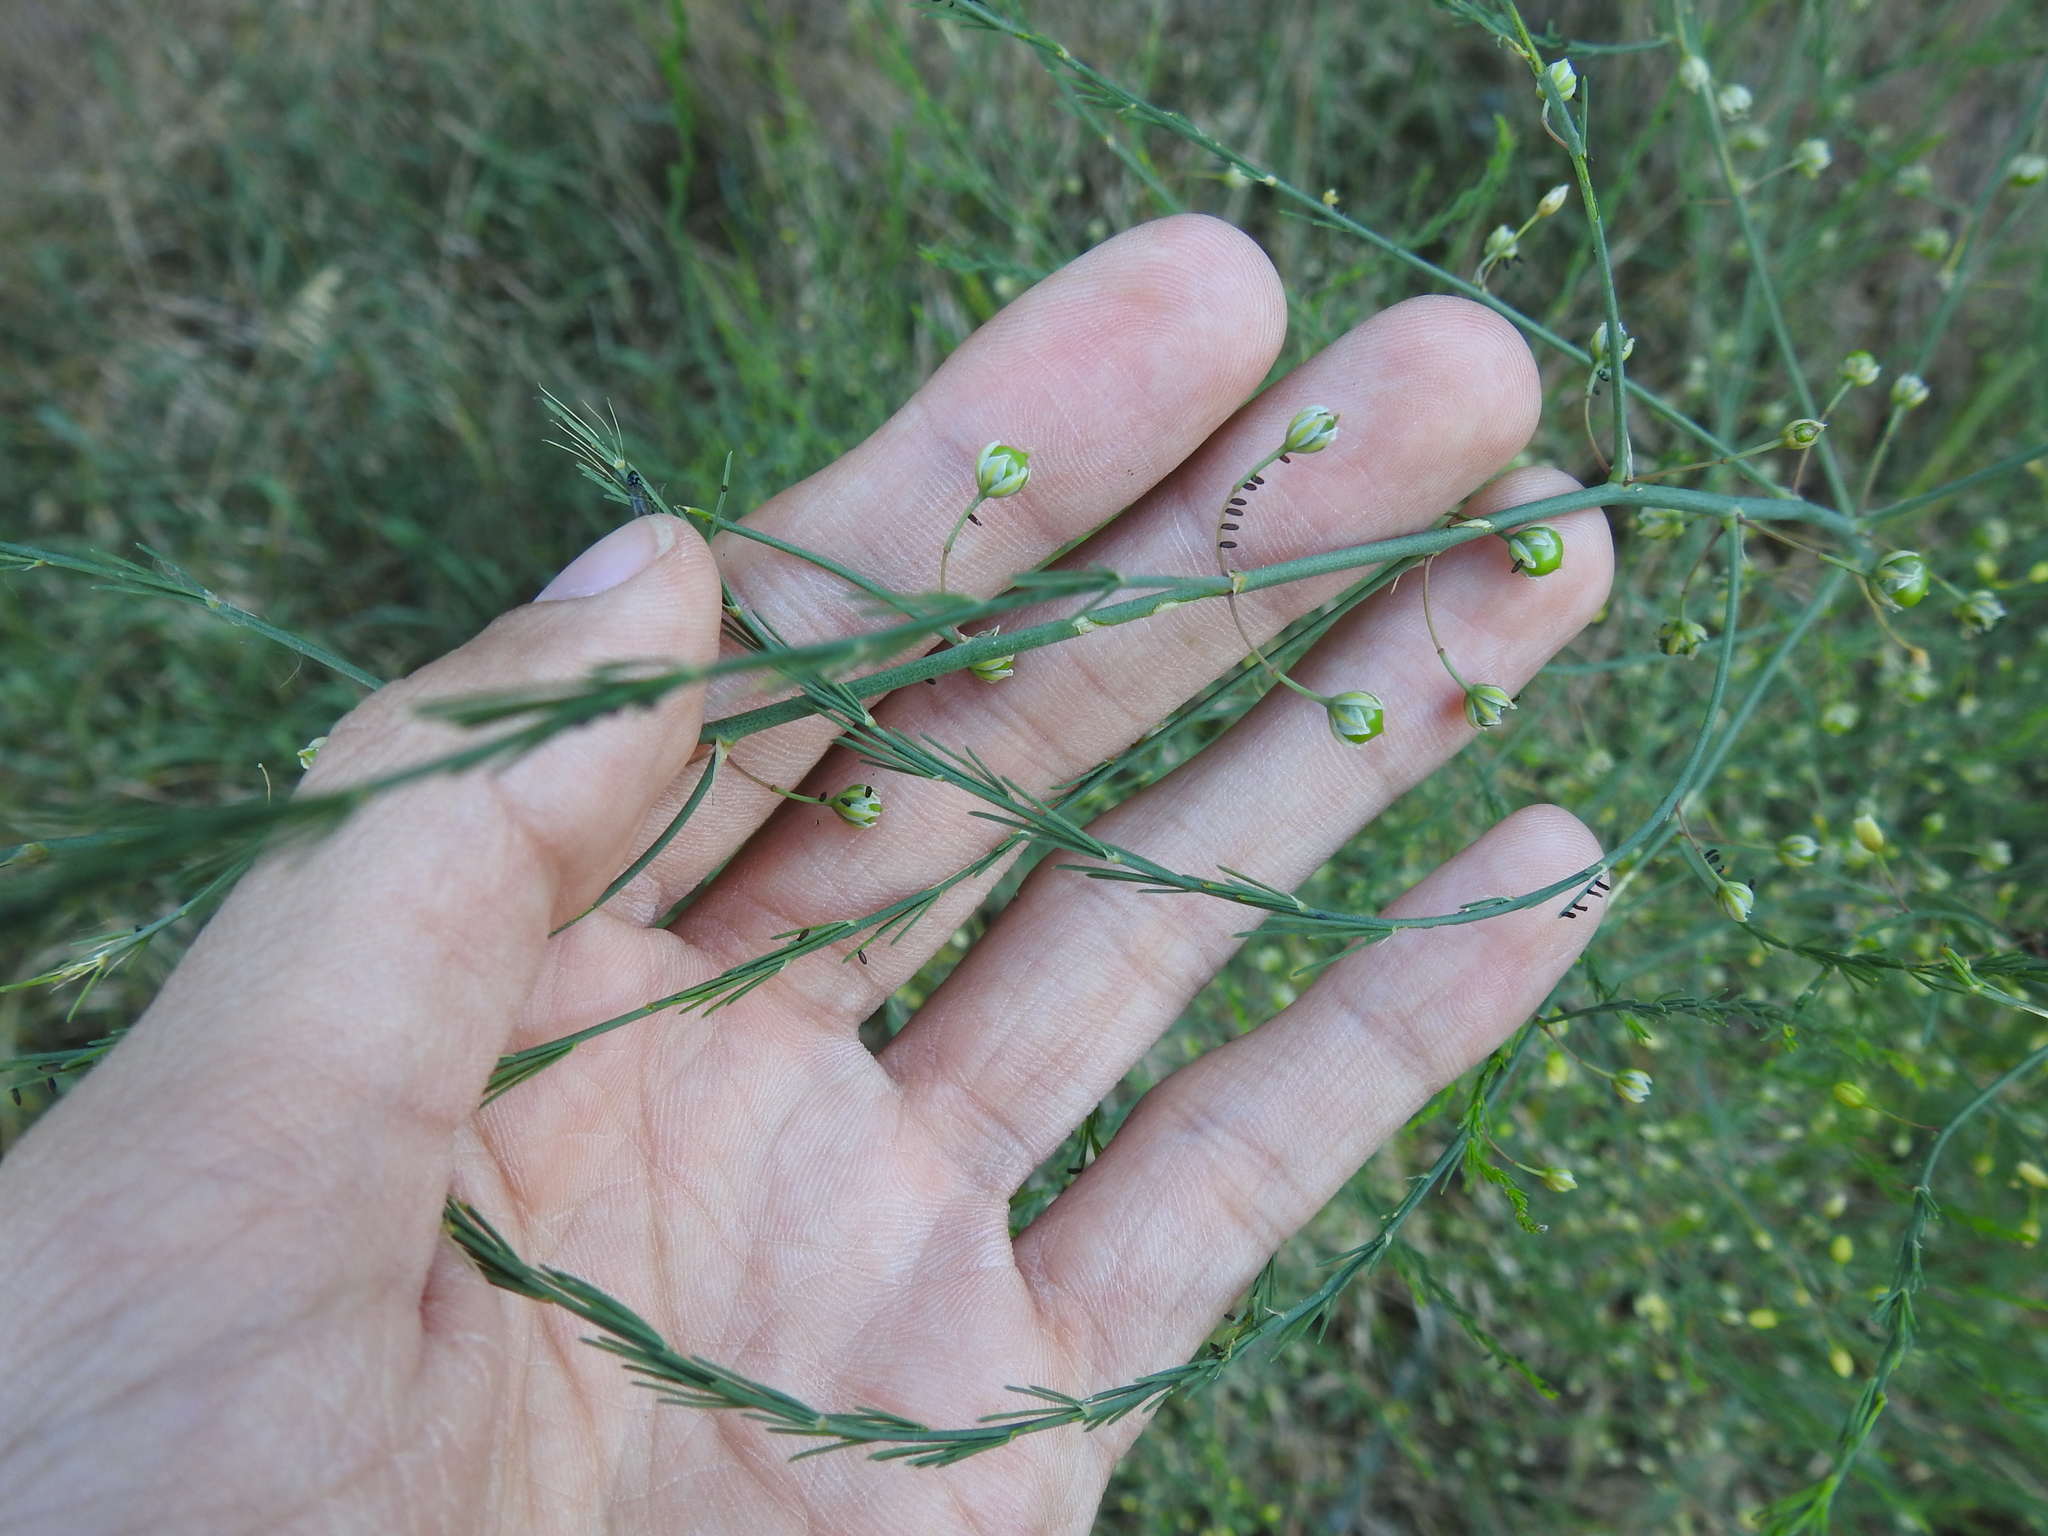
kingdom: Plantae
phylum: Tracheophyta
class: Liliopsida
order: Asparagales
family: Asparagaceae
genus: Asparagus
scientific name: Asparagus officinalis
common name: Garden asparagus
